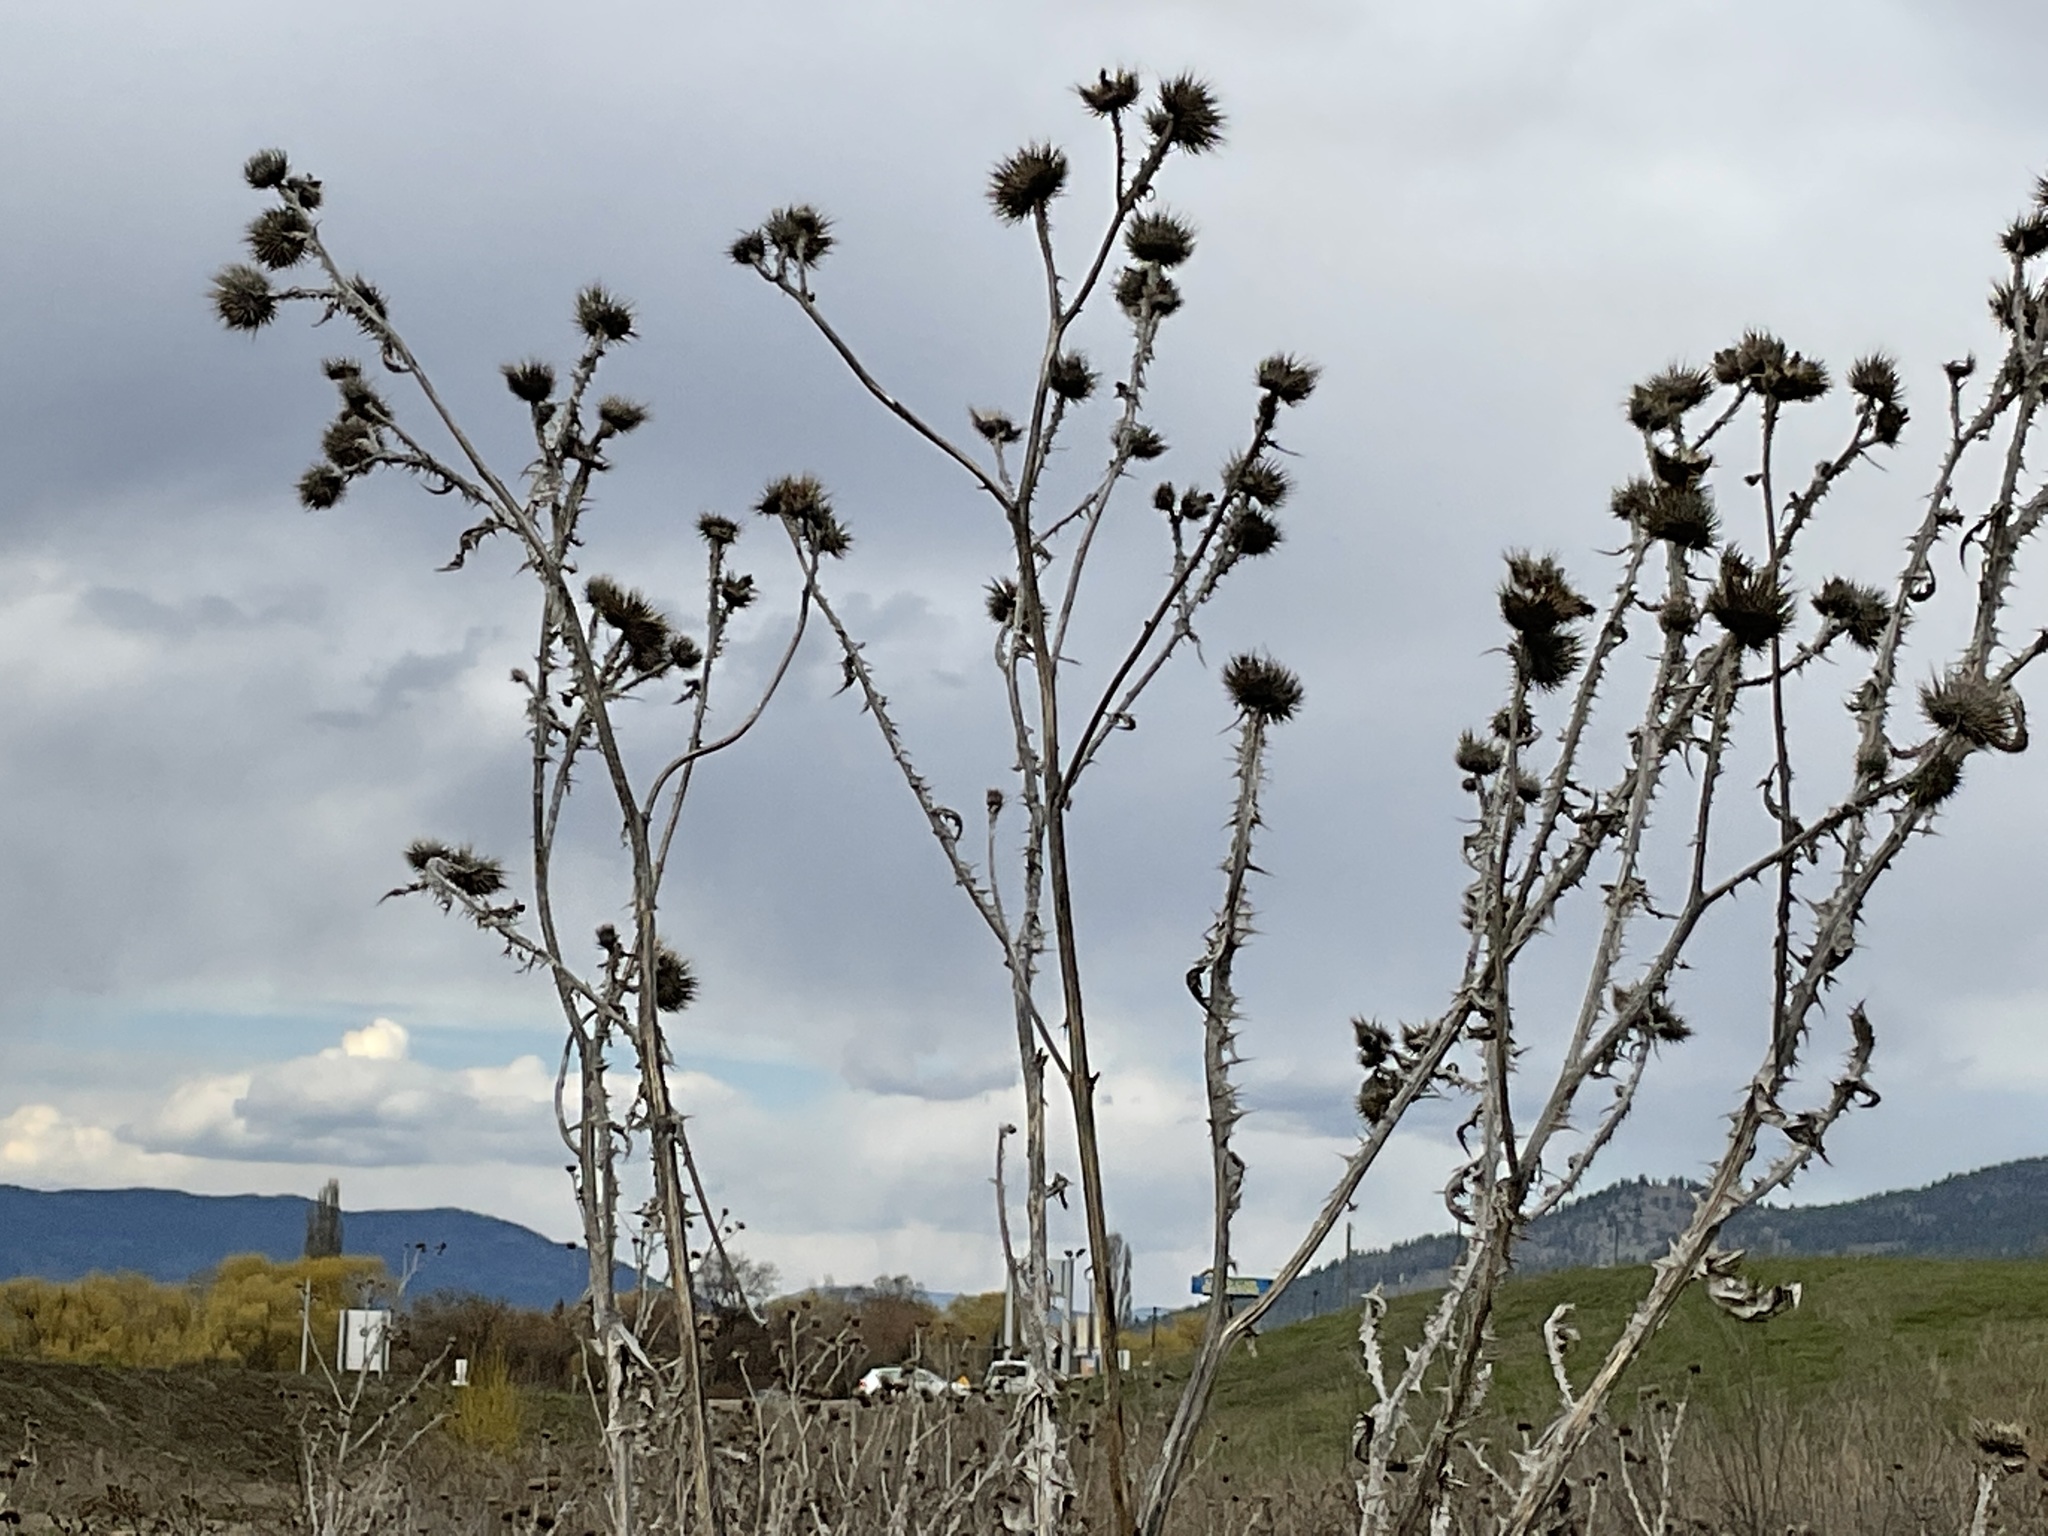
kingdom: Plantae
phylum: Tracheophyta
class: Magnoliopsida
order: Asterales
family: Asteraceae
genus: Onopordum
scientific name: Onopordum acanthium
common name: Scotch thistle
